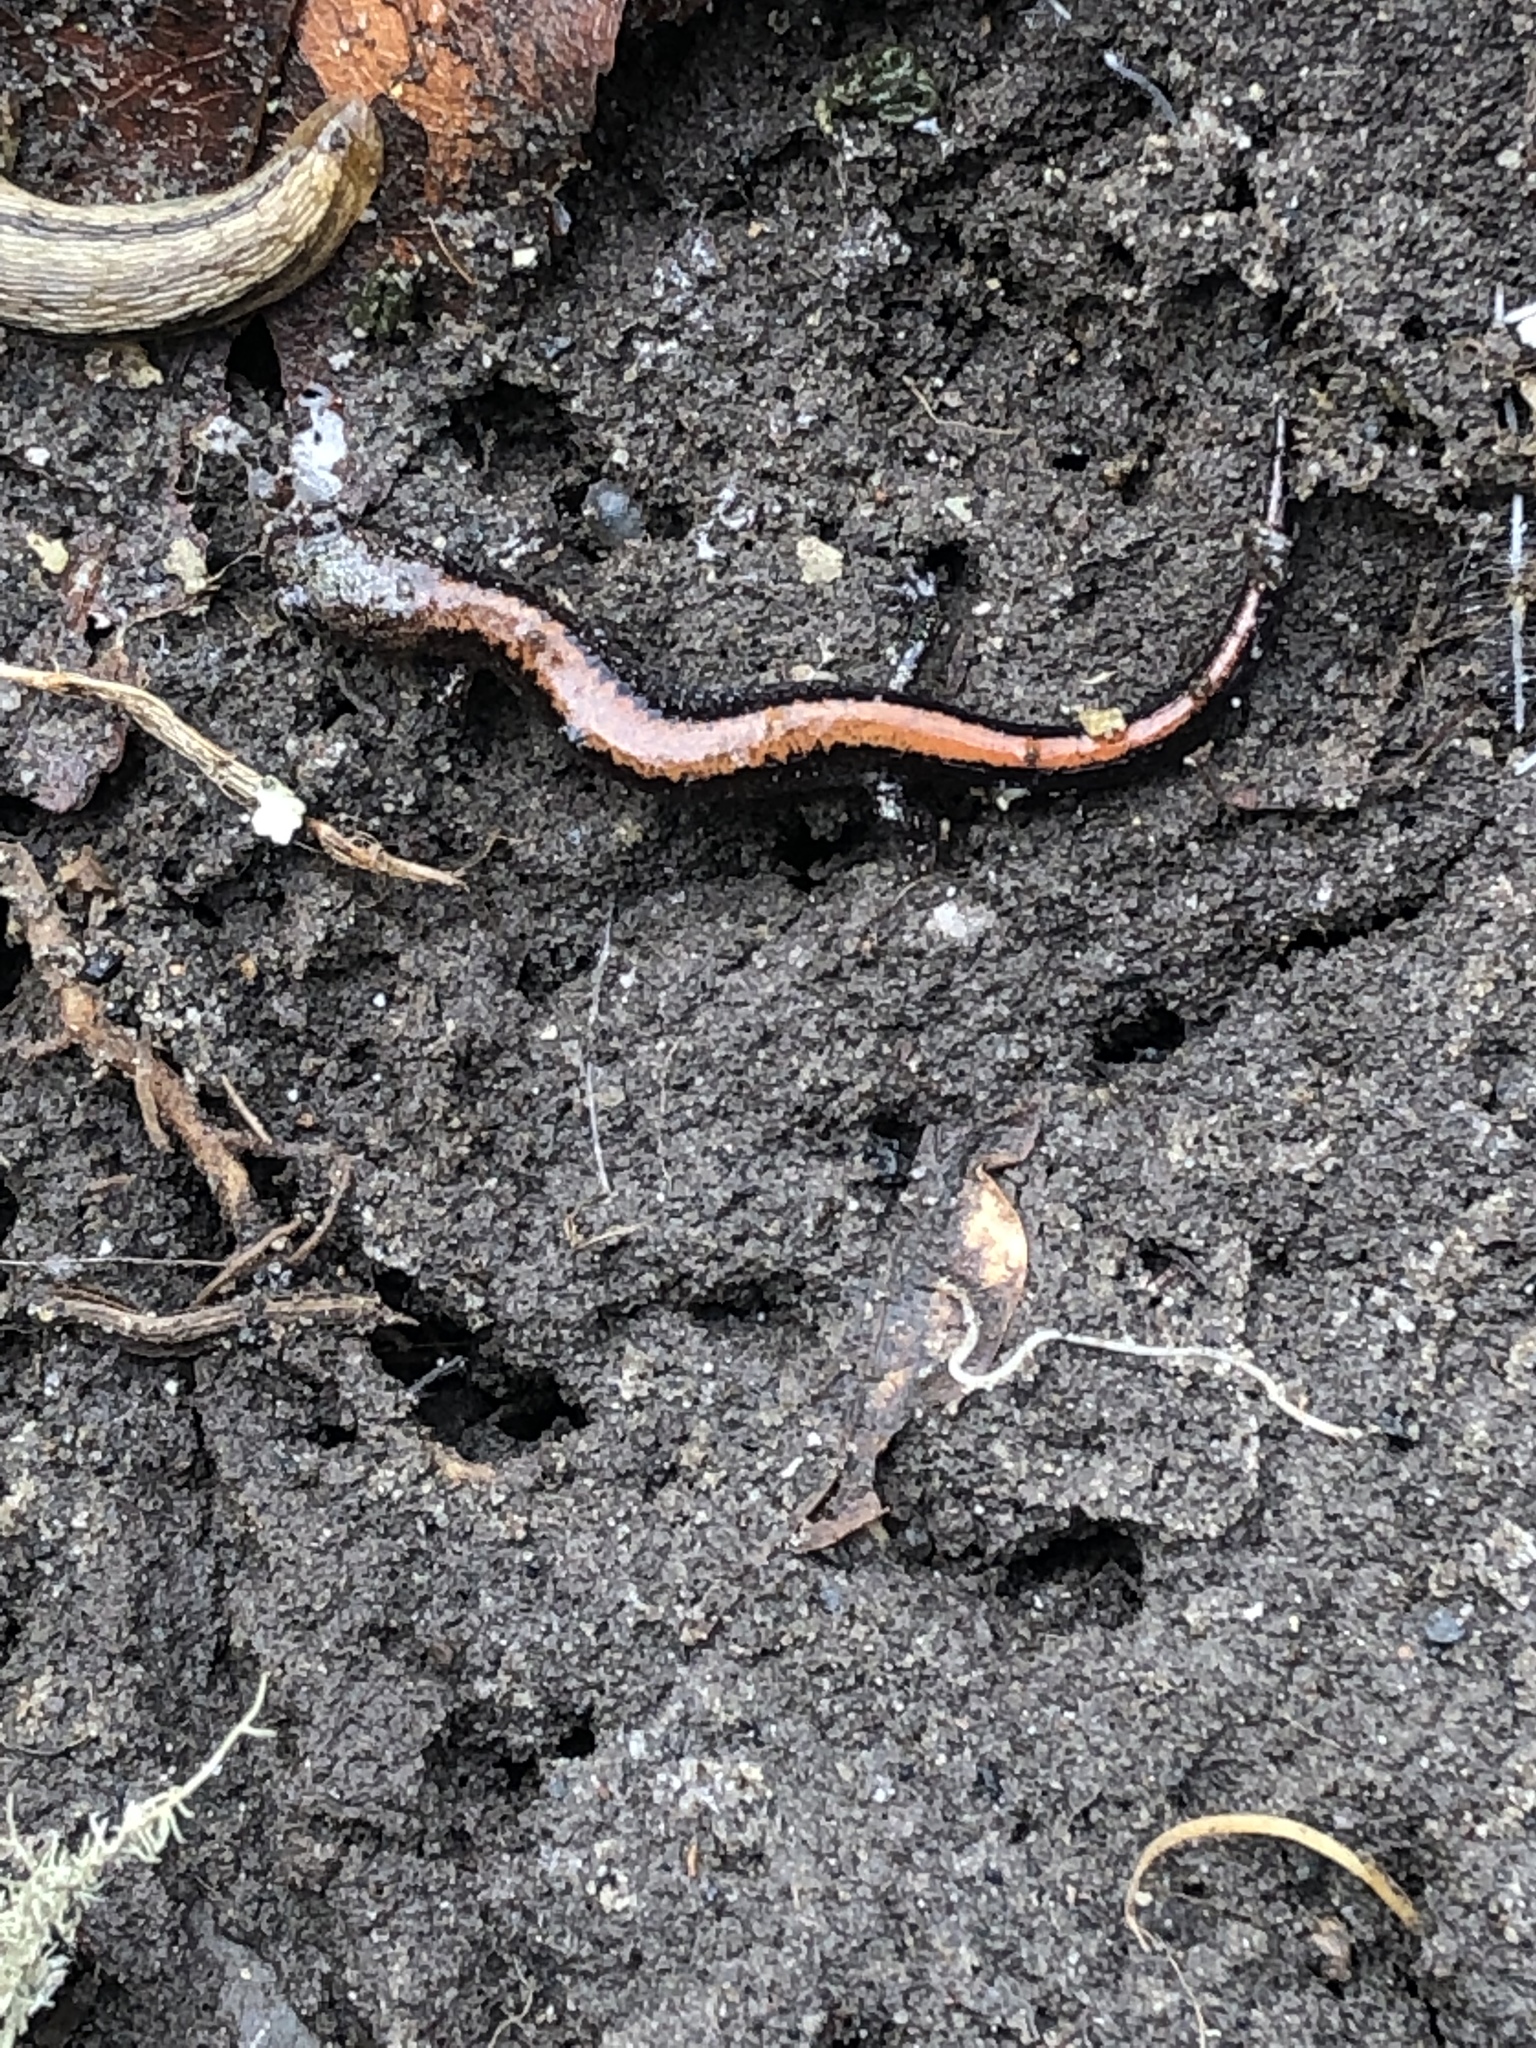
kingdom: Animalia
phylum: Chordata
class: Amphibia
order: Caudata
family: Plethodontidae
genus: Plethodon
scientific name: Plethodon cinereus
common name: Redback salamander
